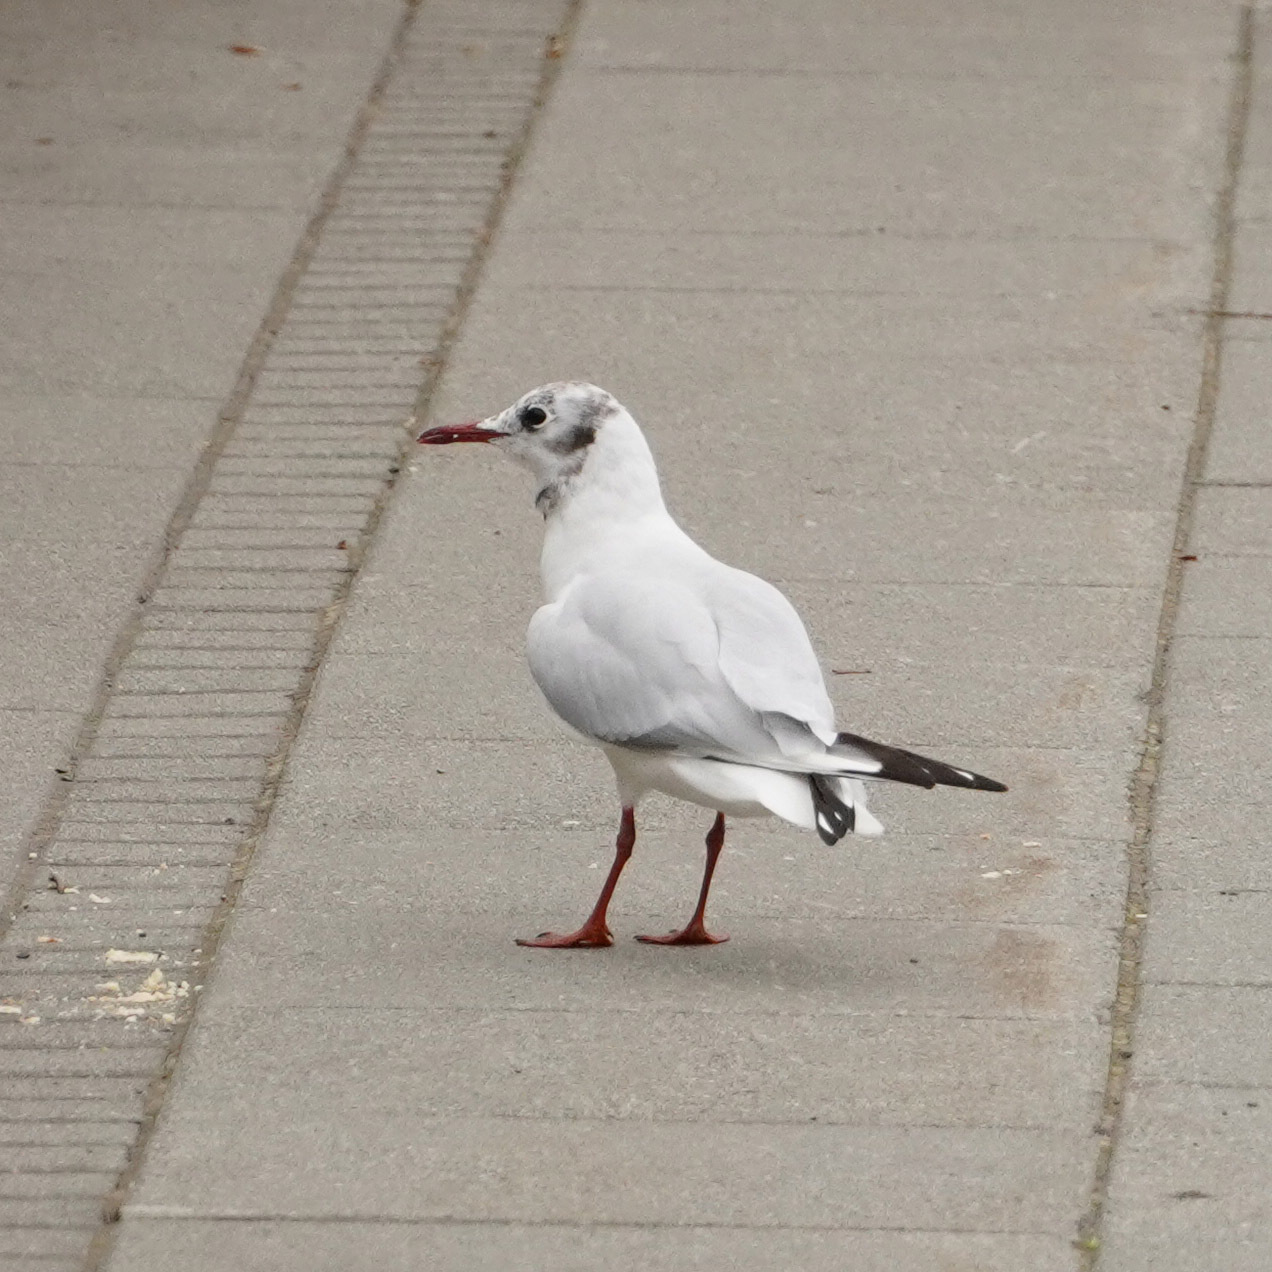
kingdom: Animalia
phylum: Chordata
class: Aves
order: Charadriiformes
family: Laridae
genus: Chroicocephalus
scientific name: Chroicocephalus ridibundus
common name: Black-headed gull
